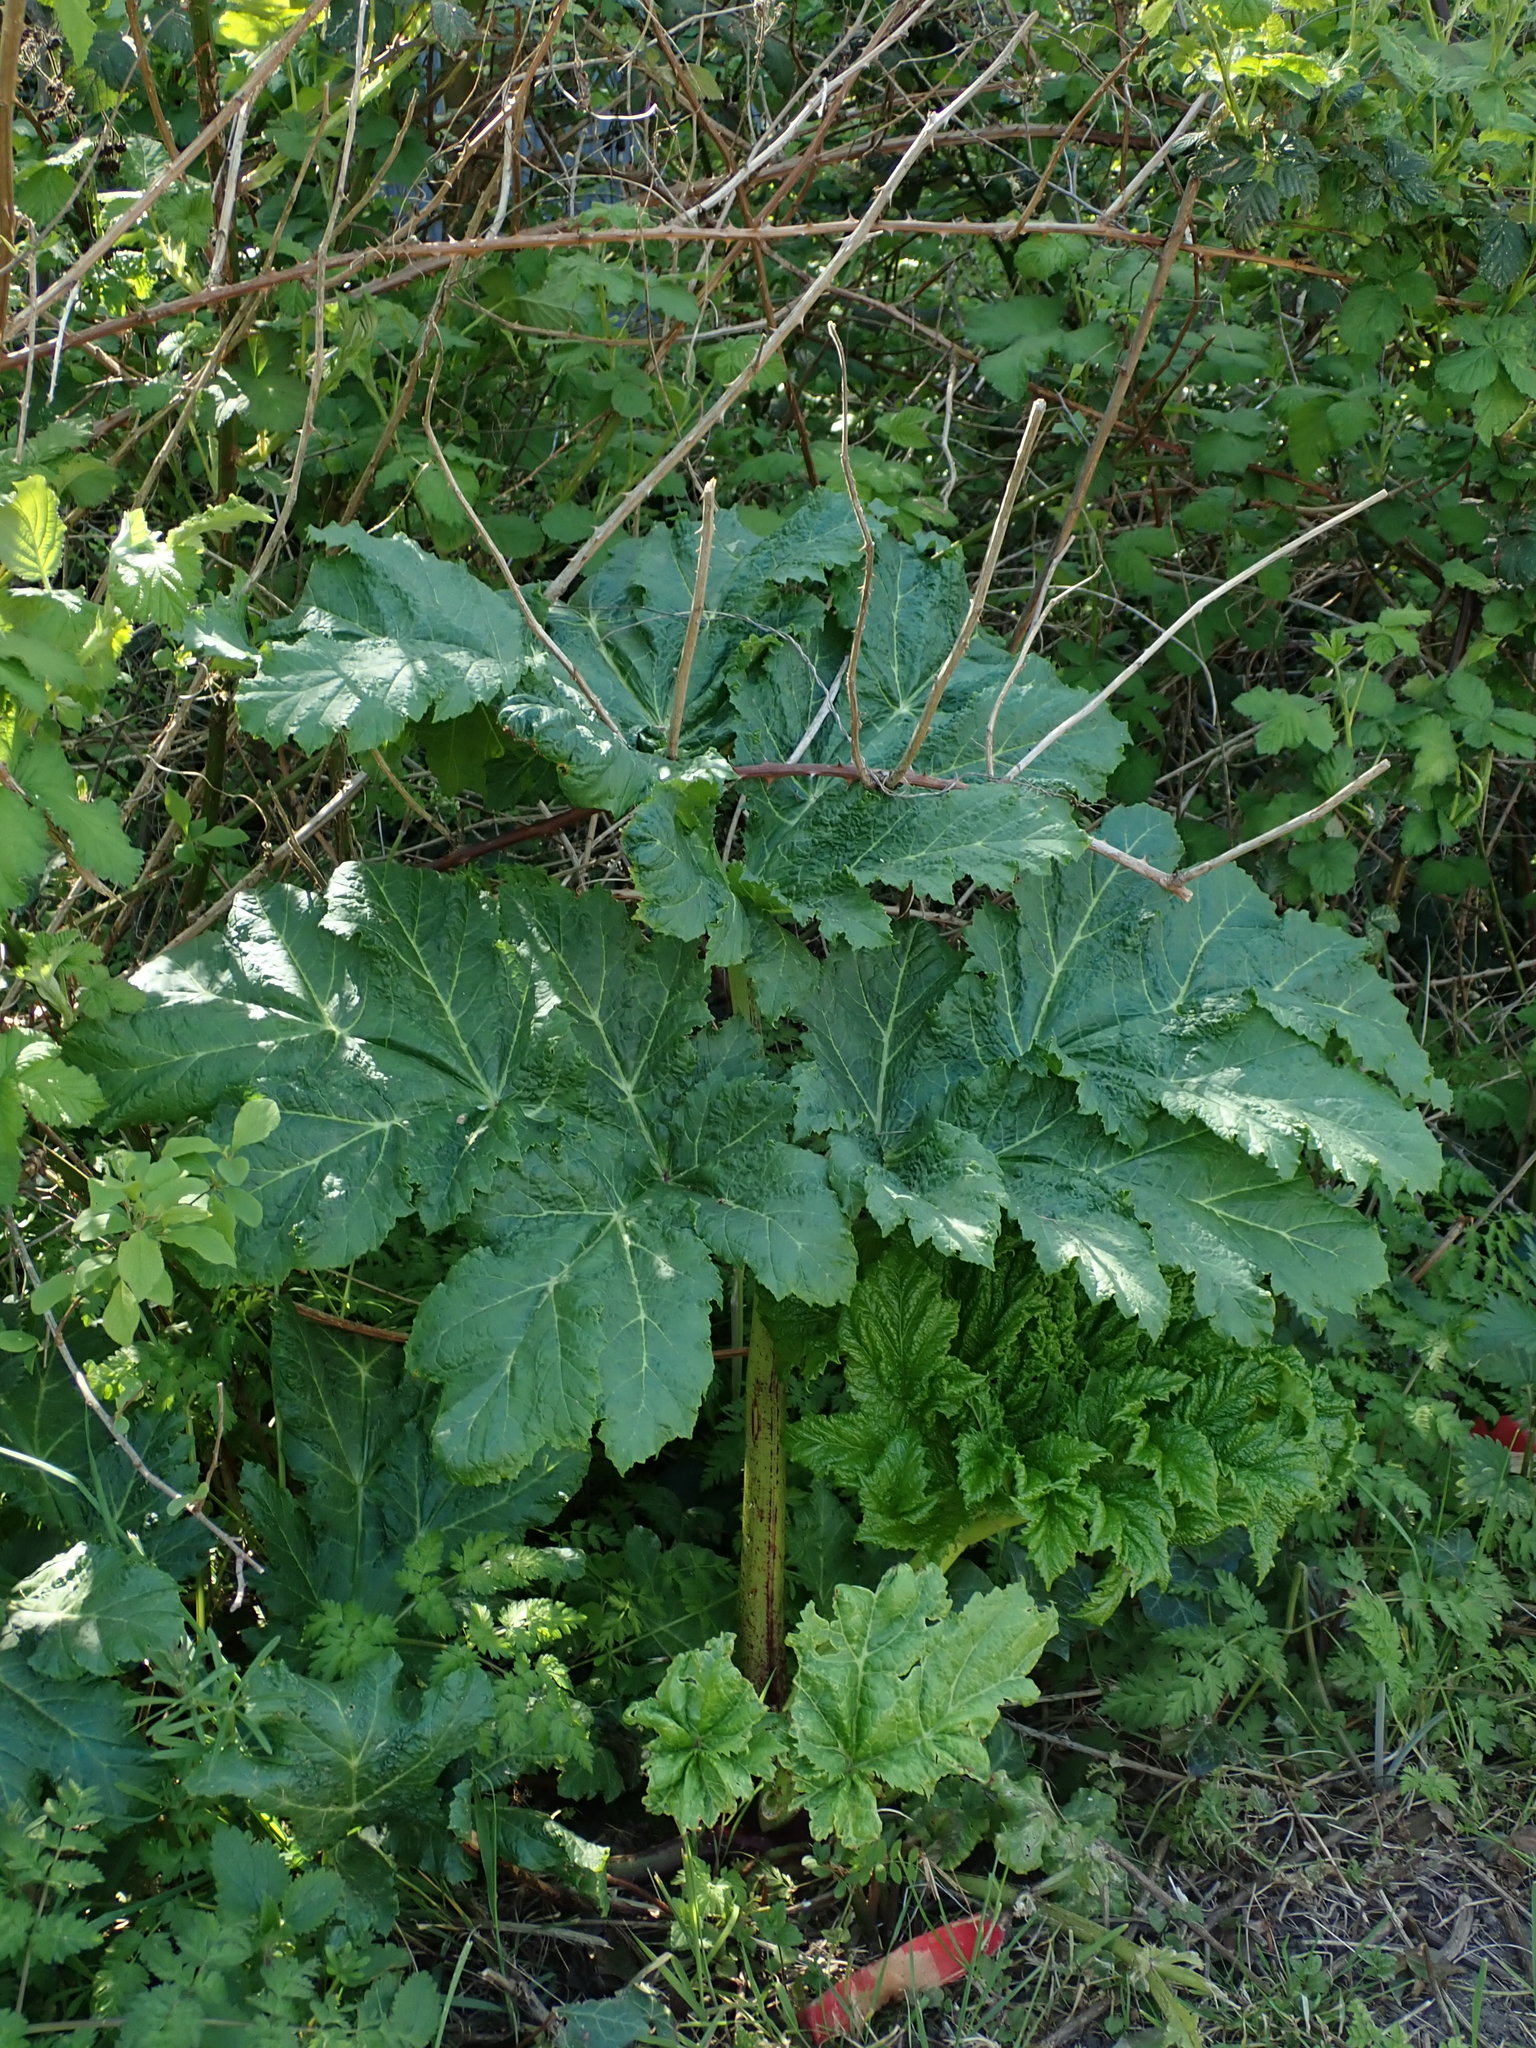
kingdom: Plantae
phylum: Tracheophyta
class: Magnoliopsida
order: Apiales
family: Apiaceae
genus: Heracleum
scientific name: Heracleum mantegazzianum
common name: Giant hogweed
